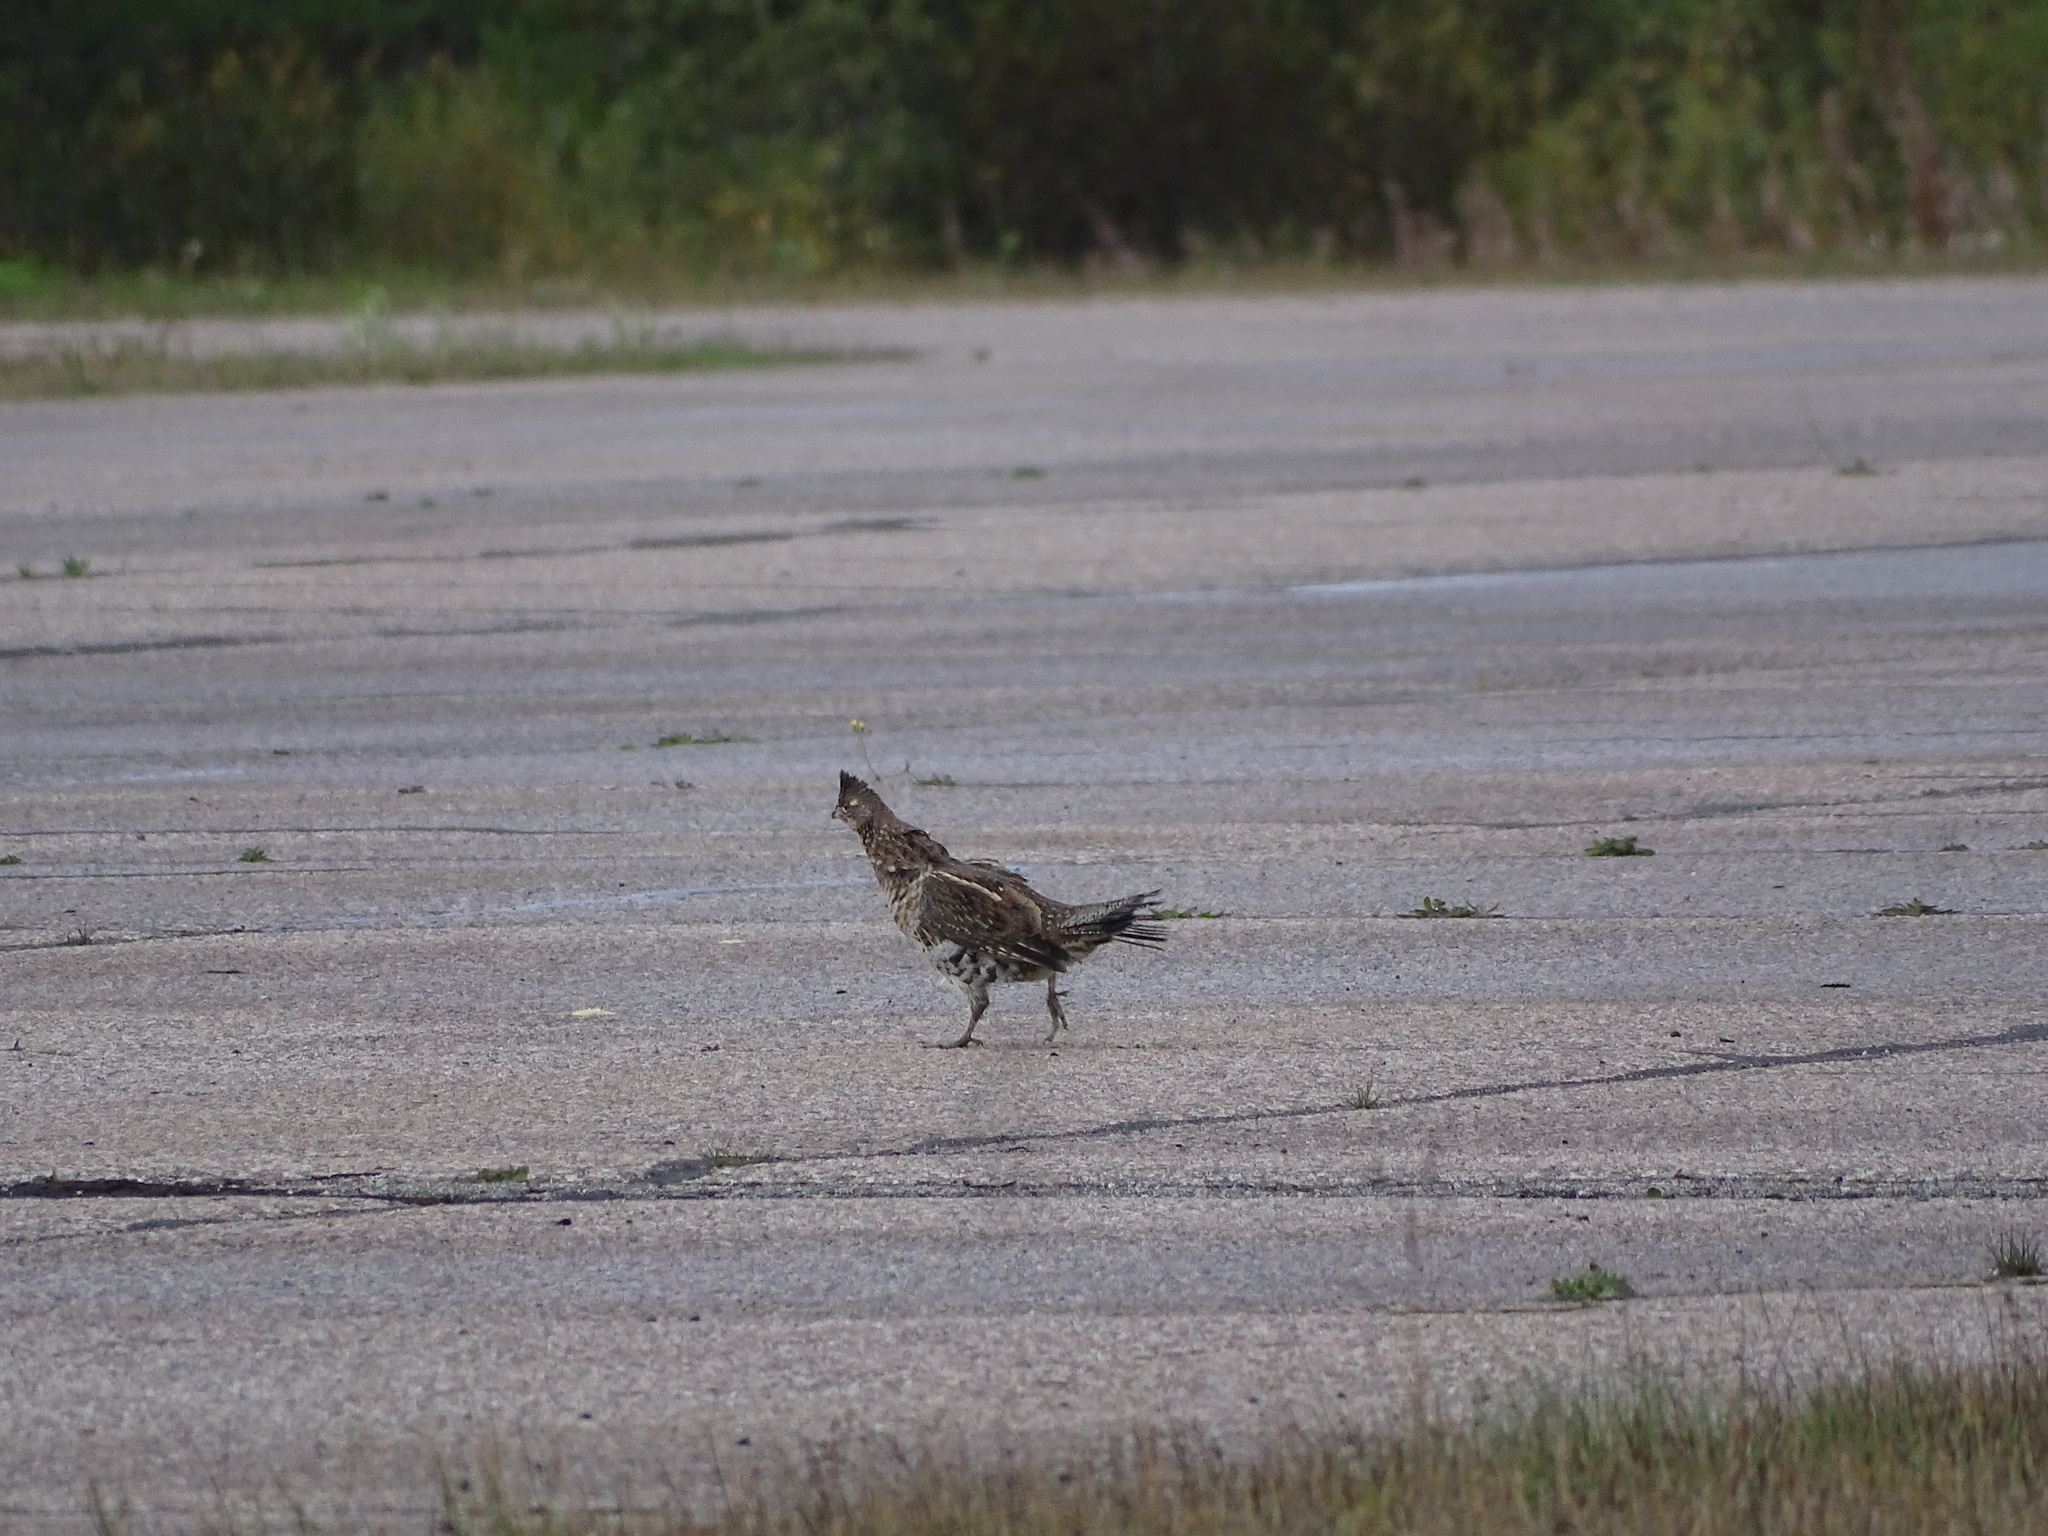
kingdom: Animalia
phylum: Chordata
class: Aves
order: Galliformes
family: Phasianidae
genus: Bonasa
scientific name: Bonasa umbellus
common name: Ruffed grouse
